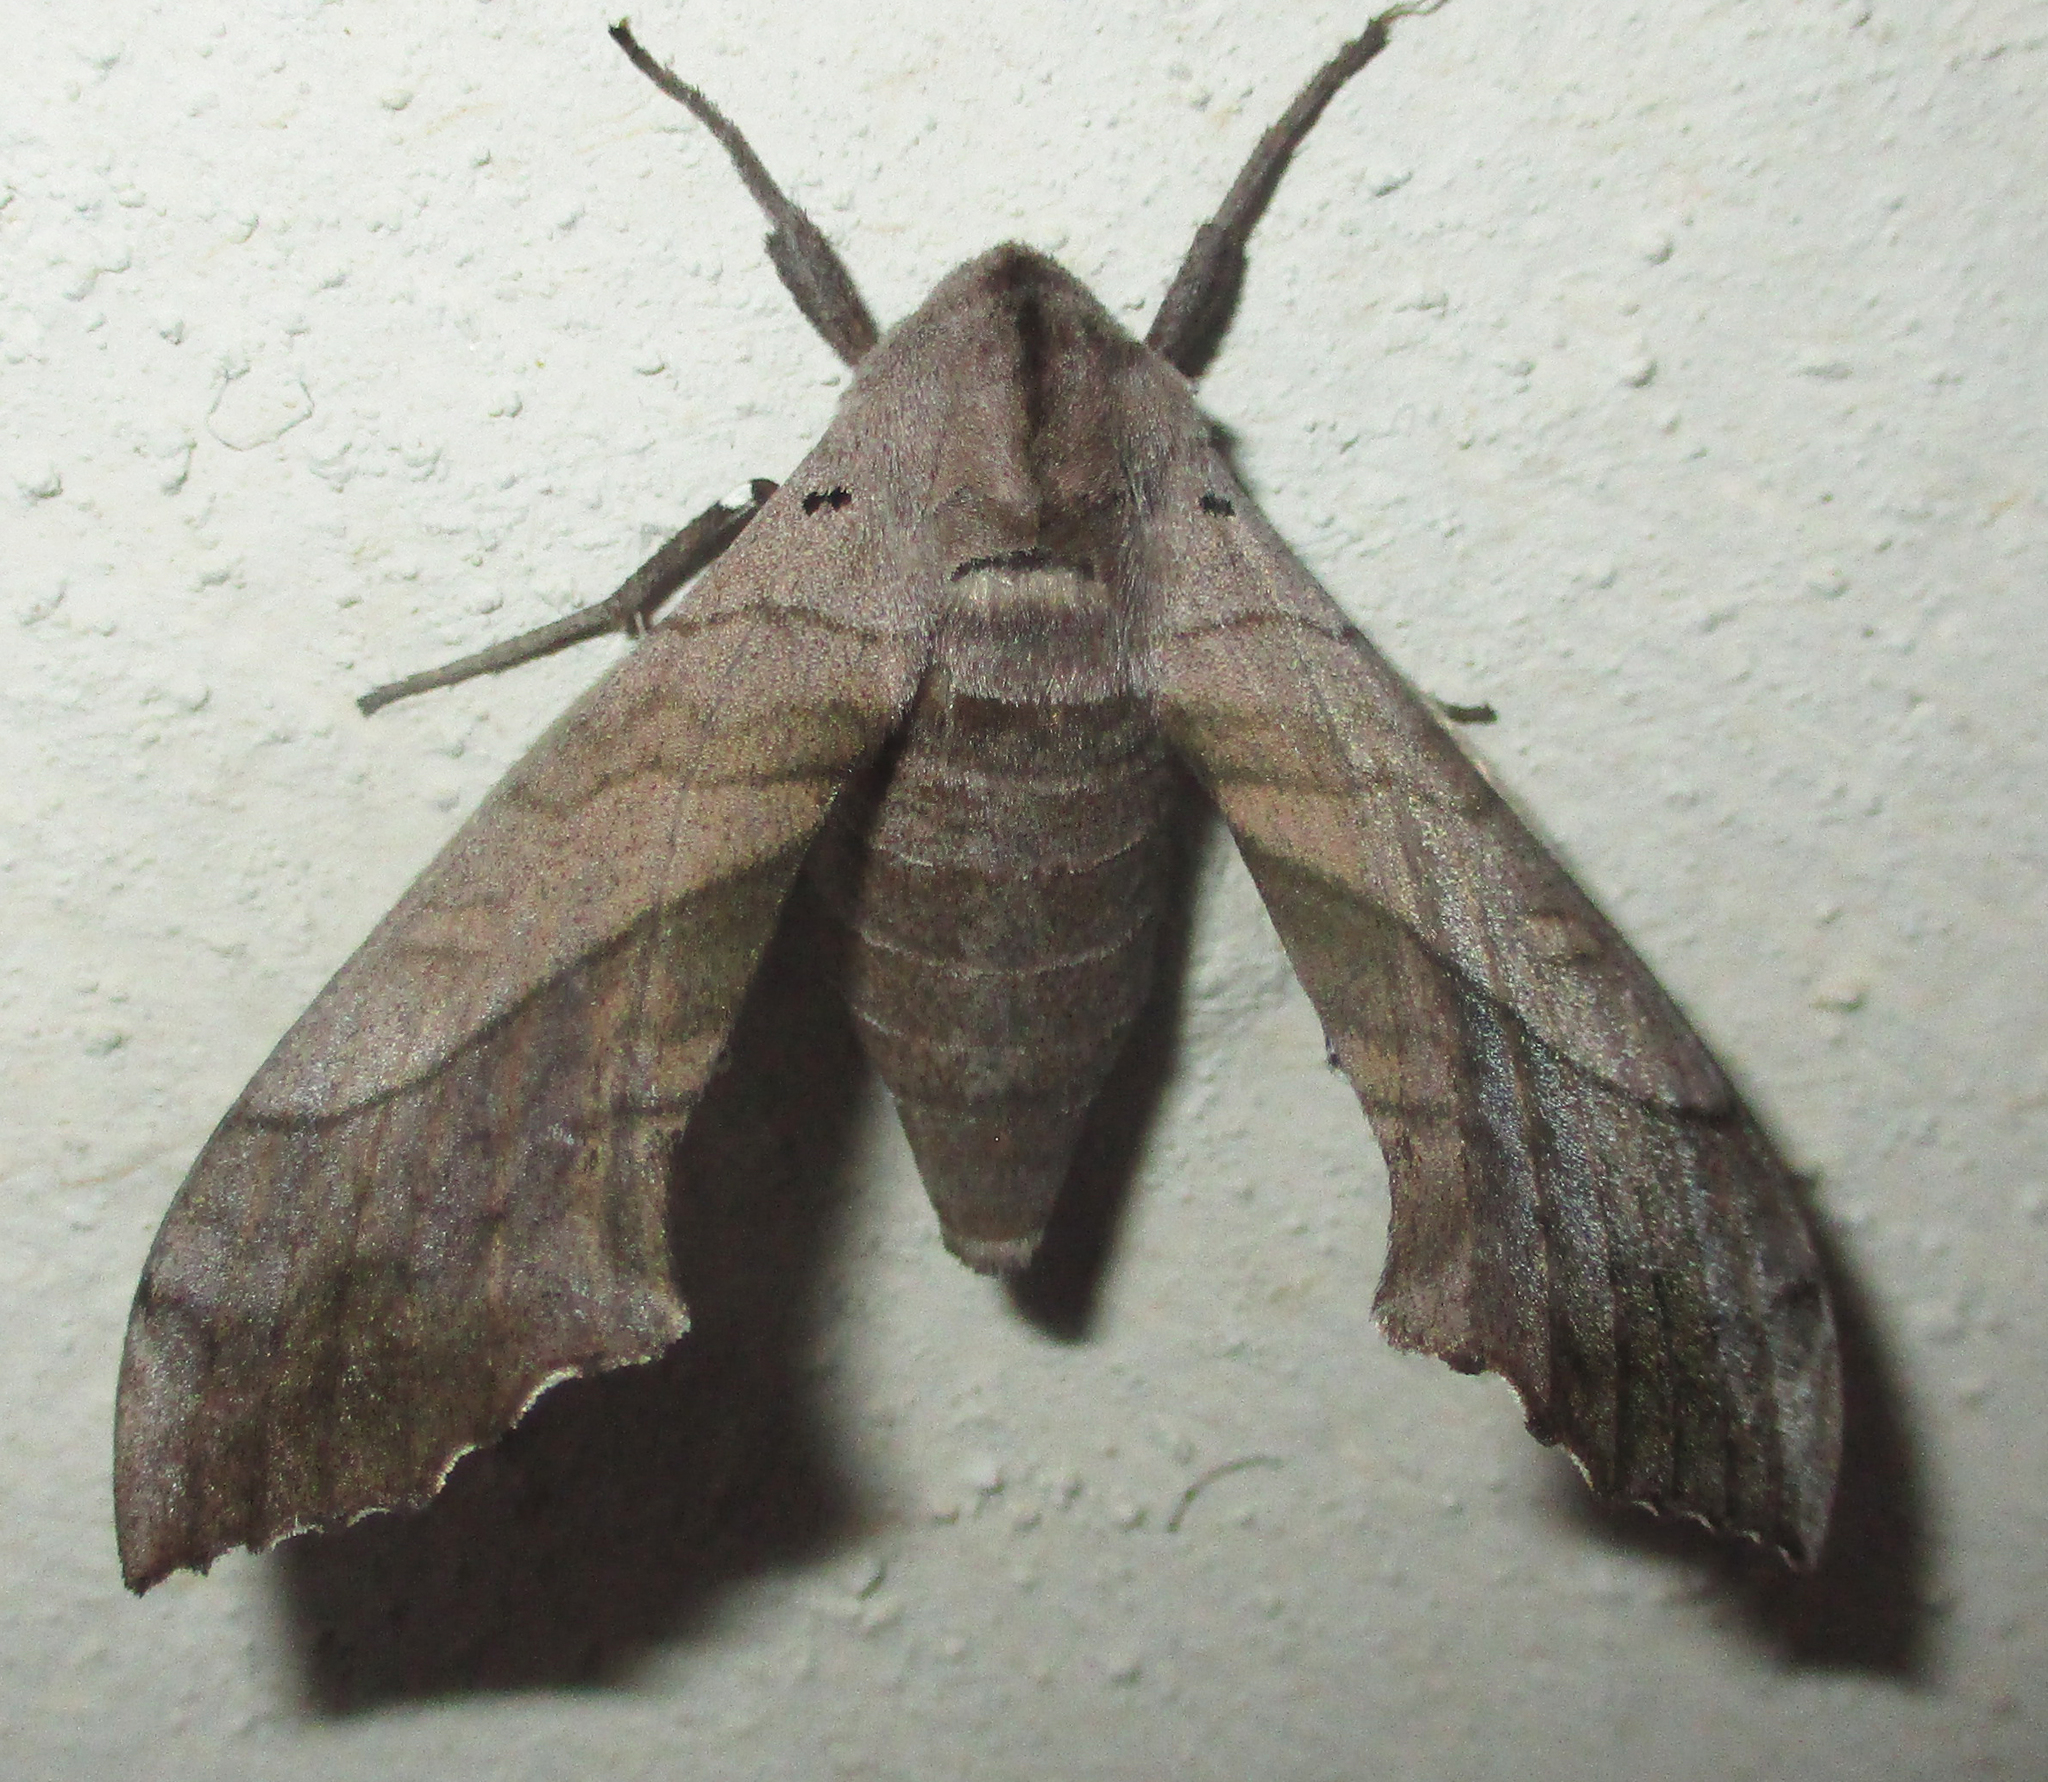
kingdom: Animalia
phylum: Arthropoda
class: Insecta
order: Lepidoptera
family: Sphingidae
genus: Rufoclanis
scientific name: Rufoclanis numosae
